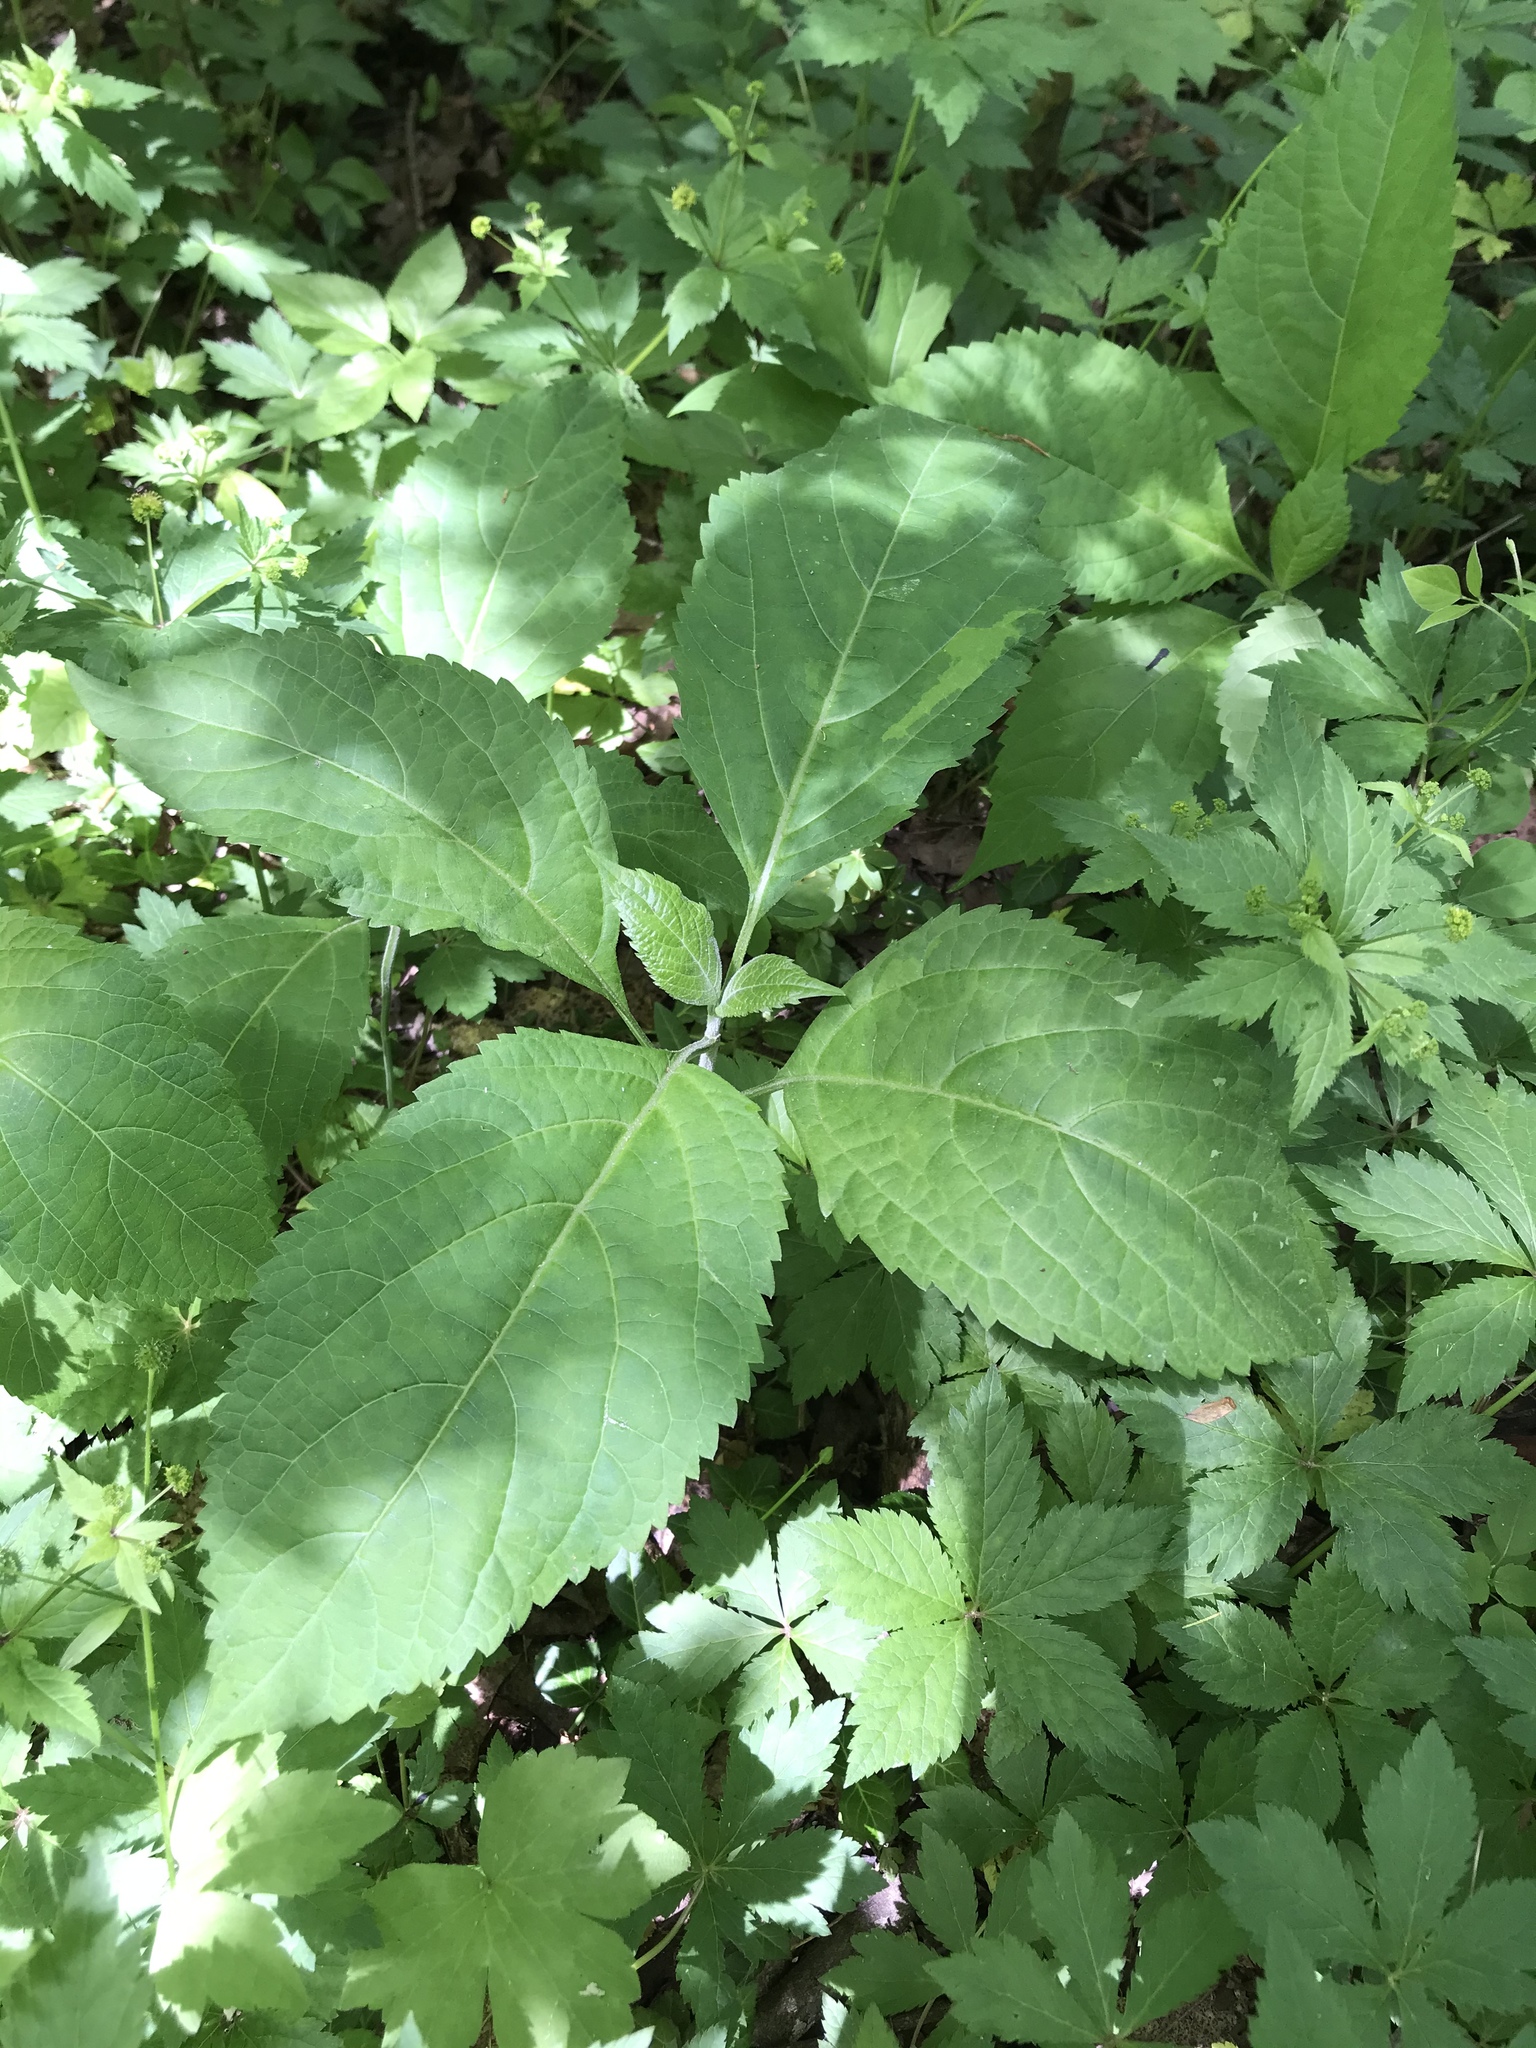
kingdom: Plantae
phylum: Tracheophyta
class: Magnoliopsida
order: Lamiales
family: Lamiaceae
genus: Collinsonia
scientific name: Collinsonia canadensis
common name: Northern horsebalm
